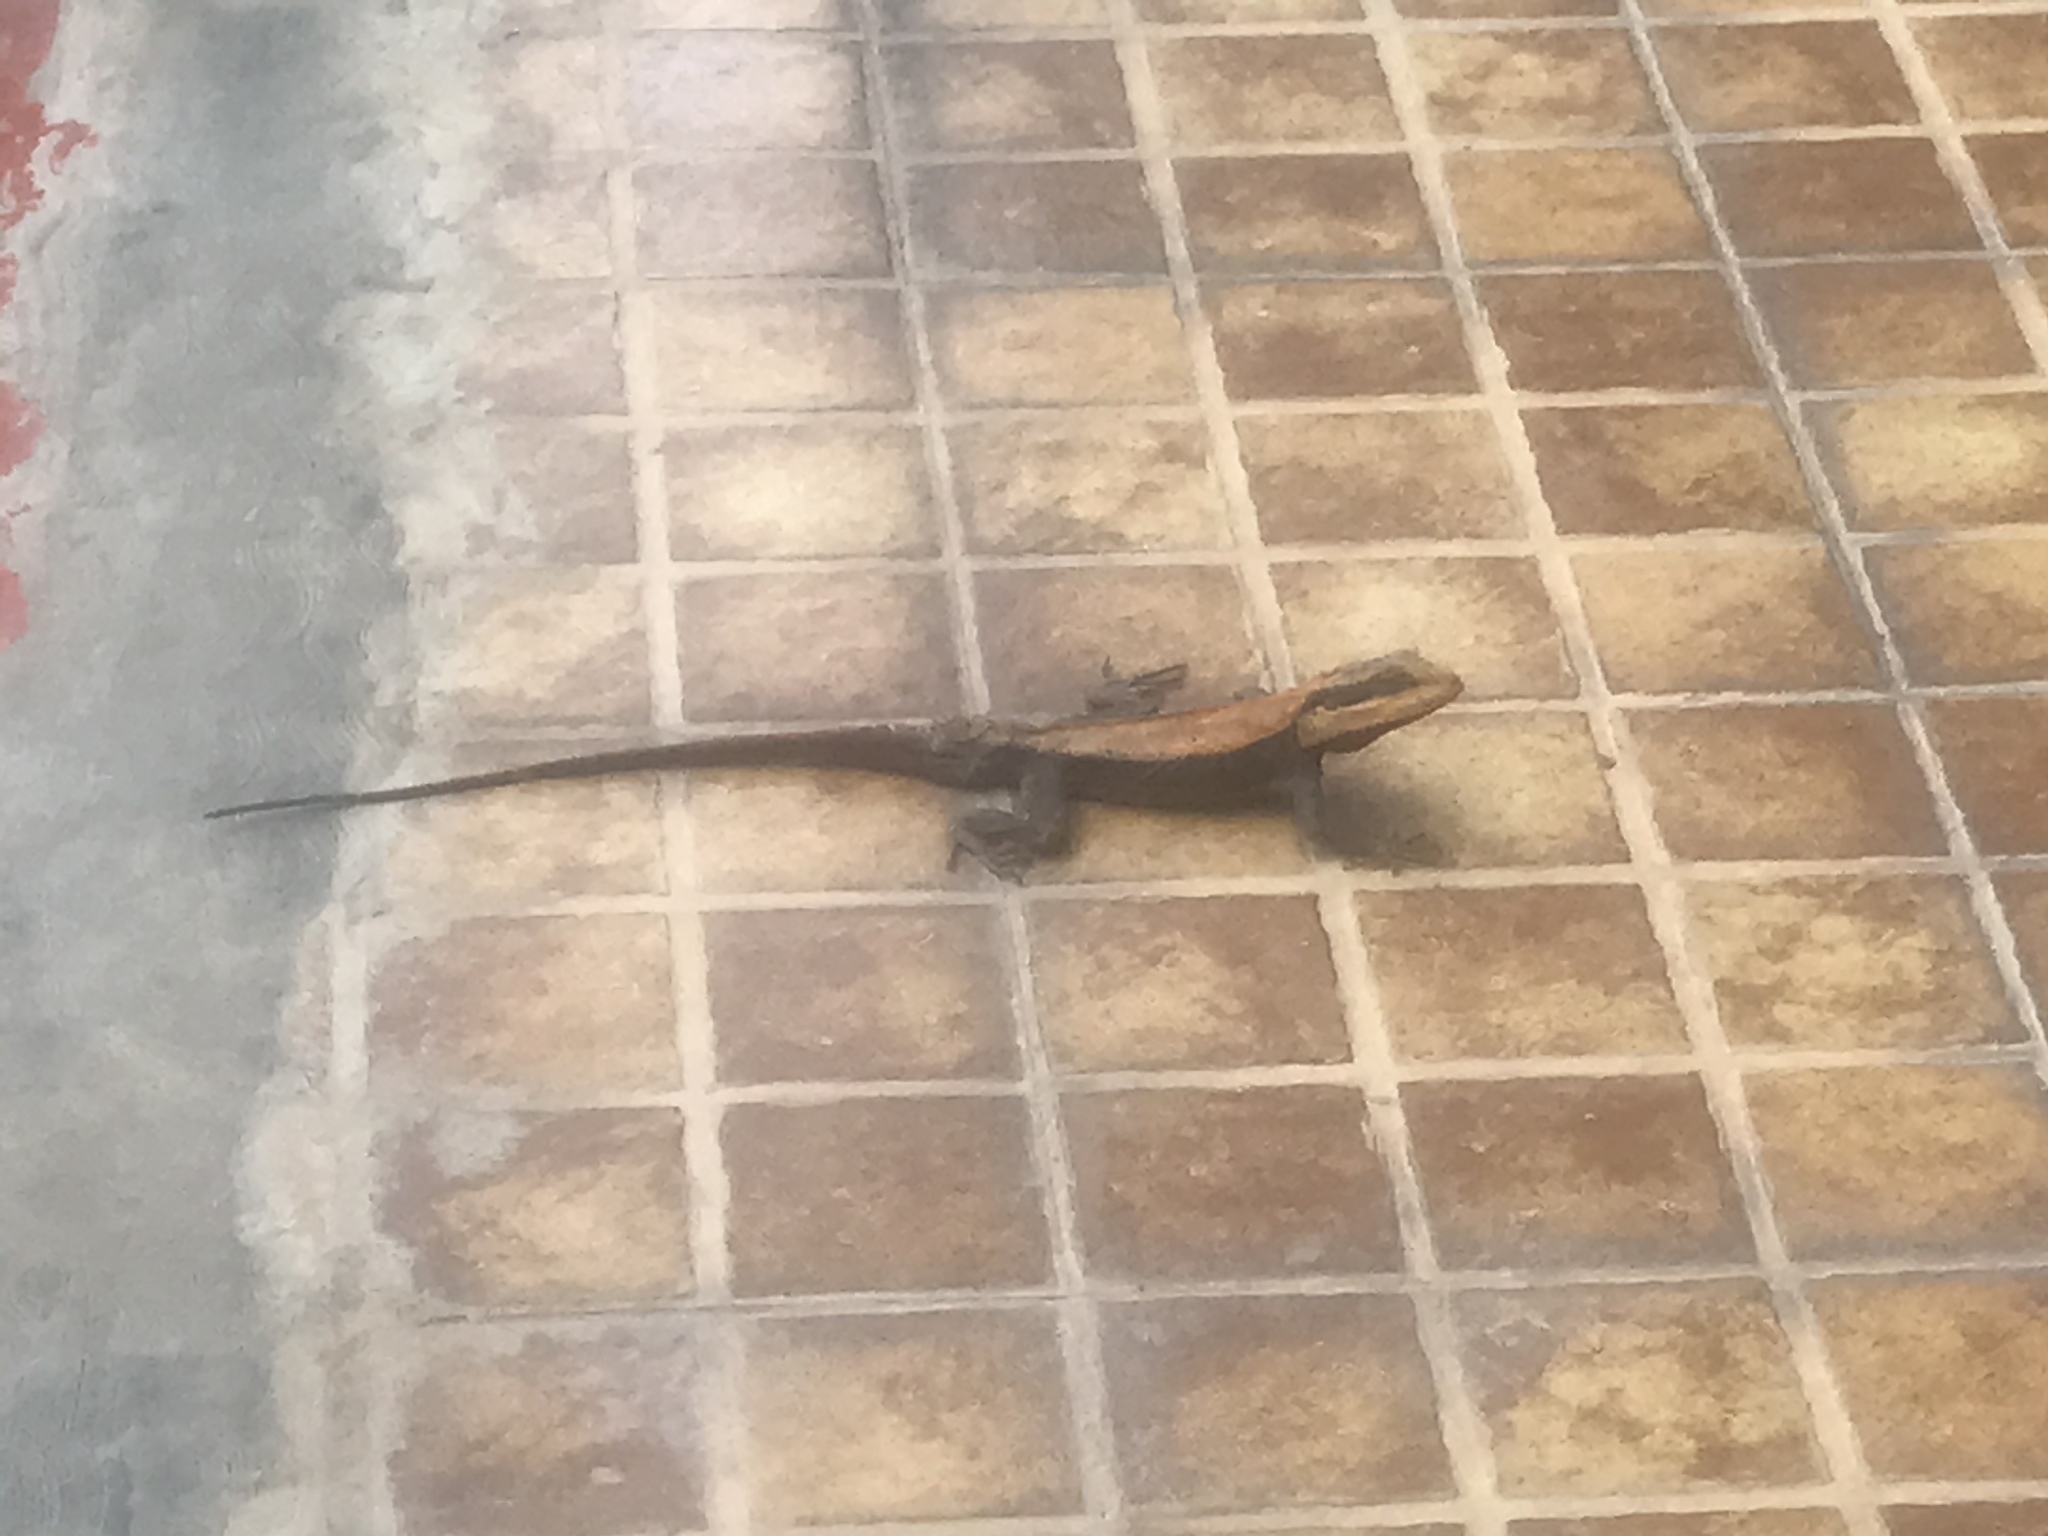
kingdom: Animalia
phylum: Chordata
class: Squamata
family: Agamidae
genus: Psammophilus
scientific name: Psammophilus dorsalis
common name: South indian rock agama
